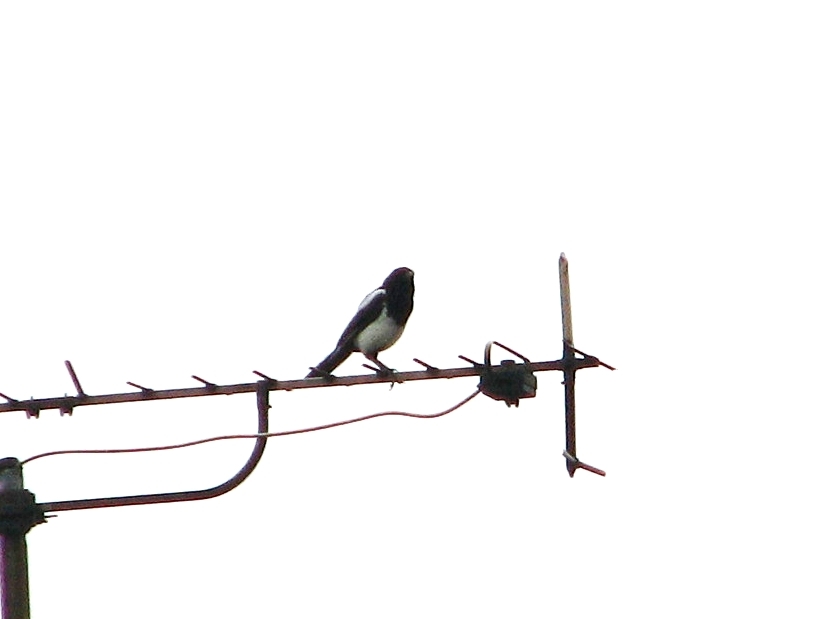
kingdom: Animalia
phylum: Chordata
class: Aves
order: Passeriformes
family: Corvidae
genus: Pica
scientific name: Pica pica
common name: Eurasian magpie
